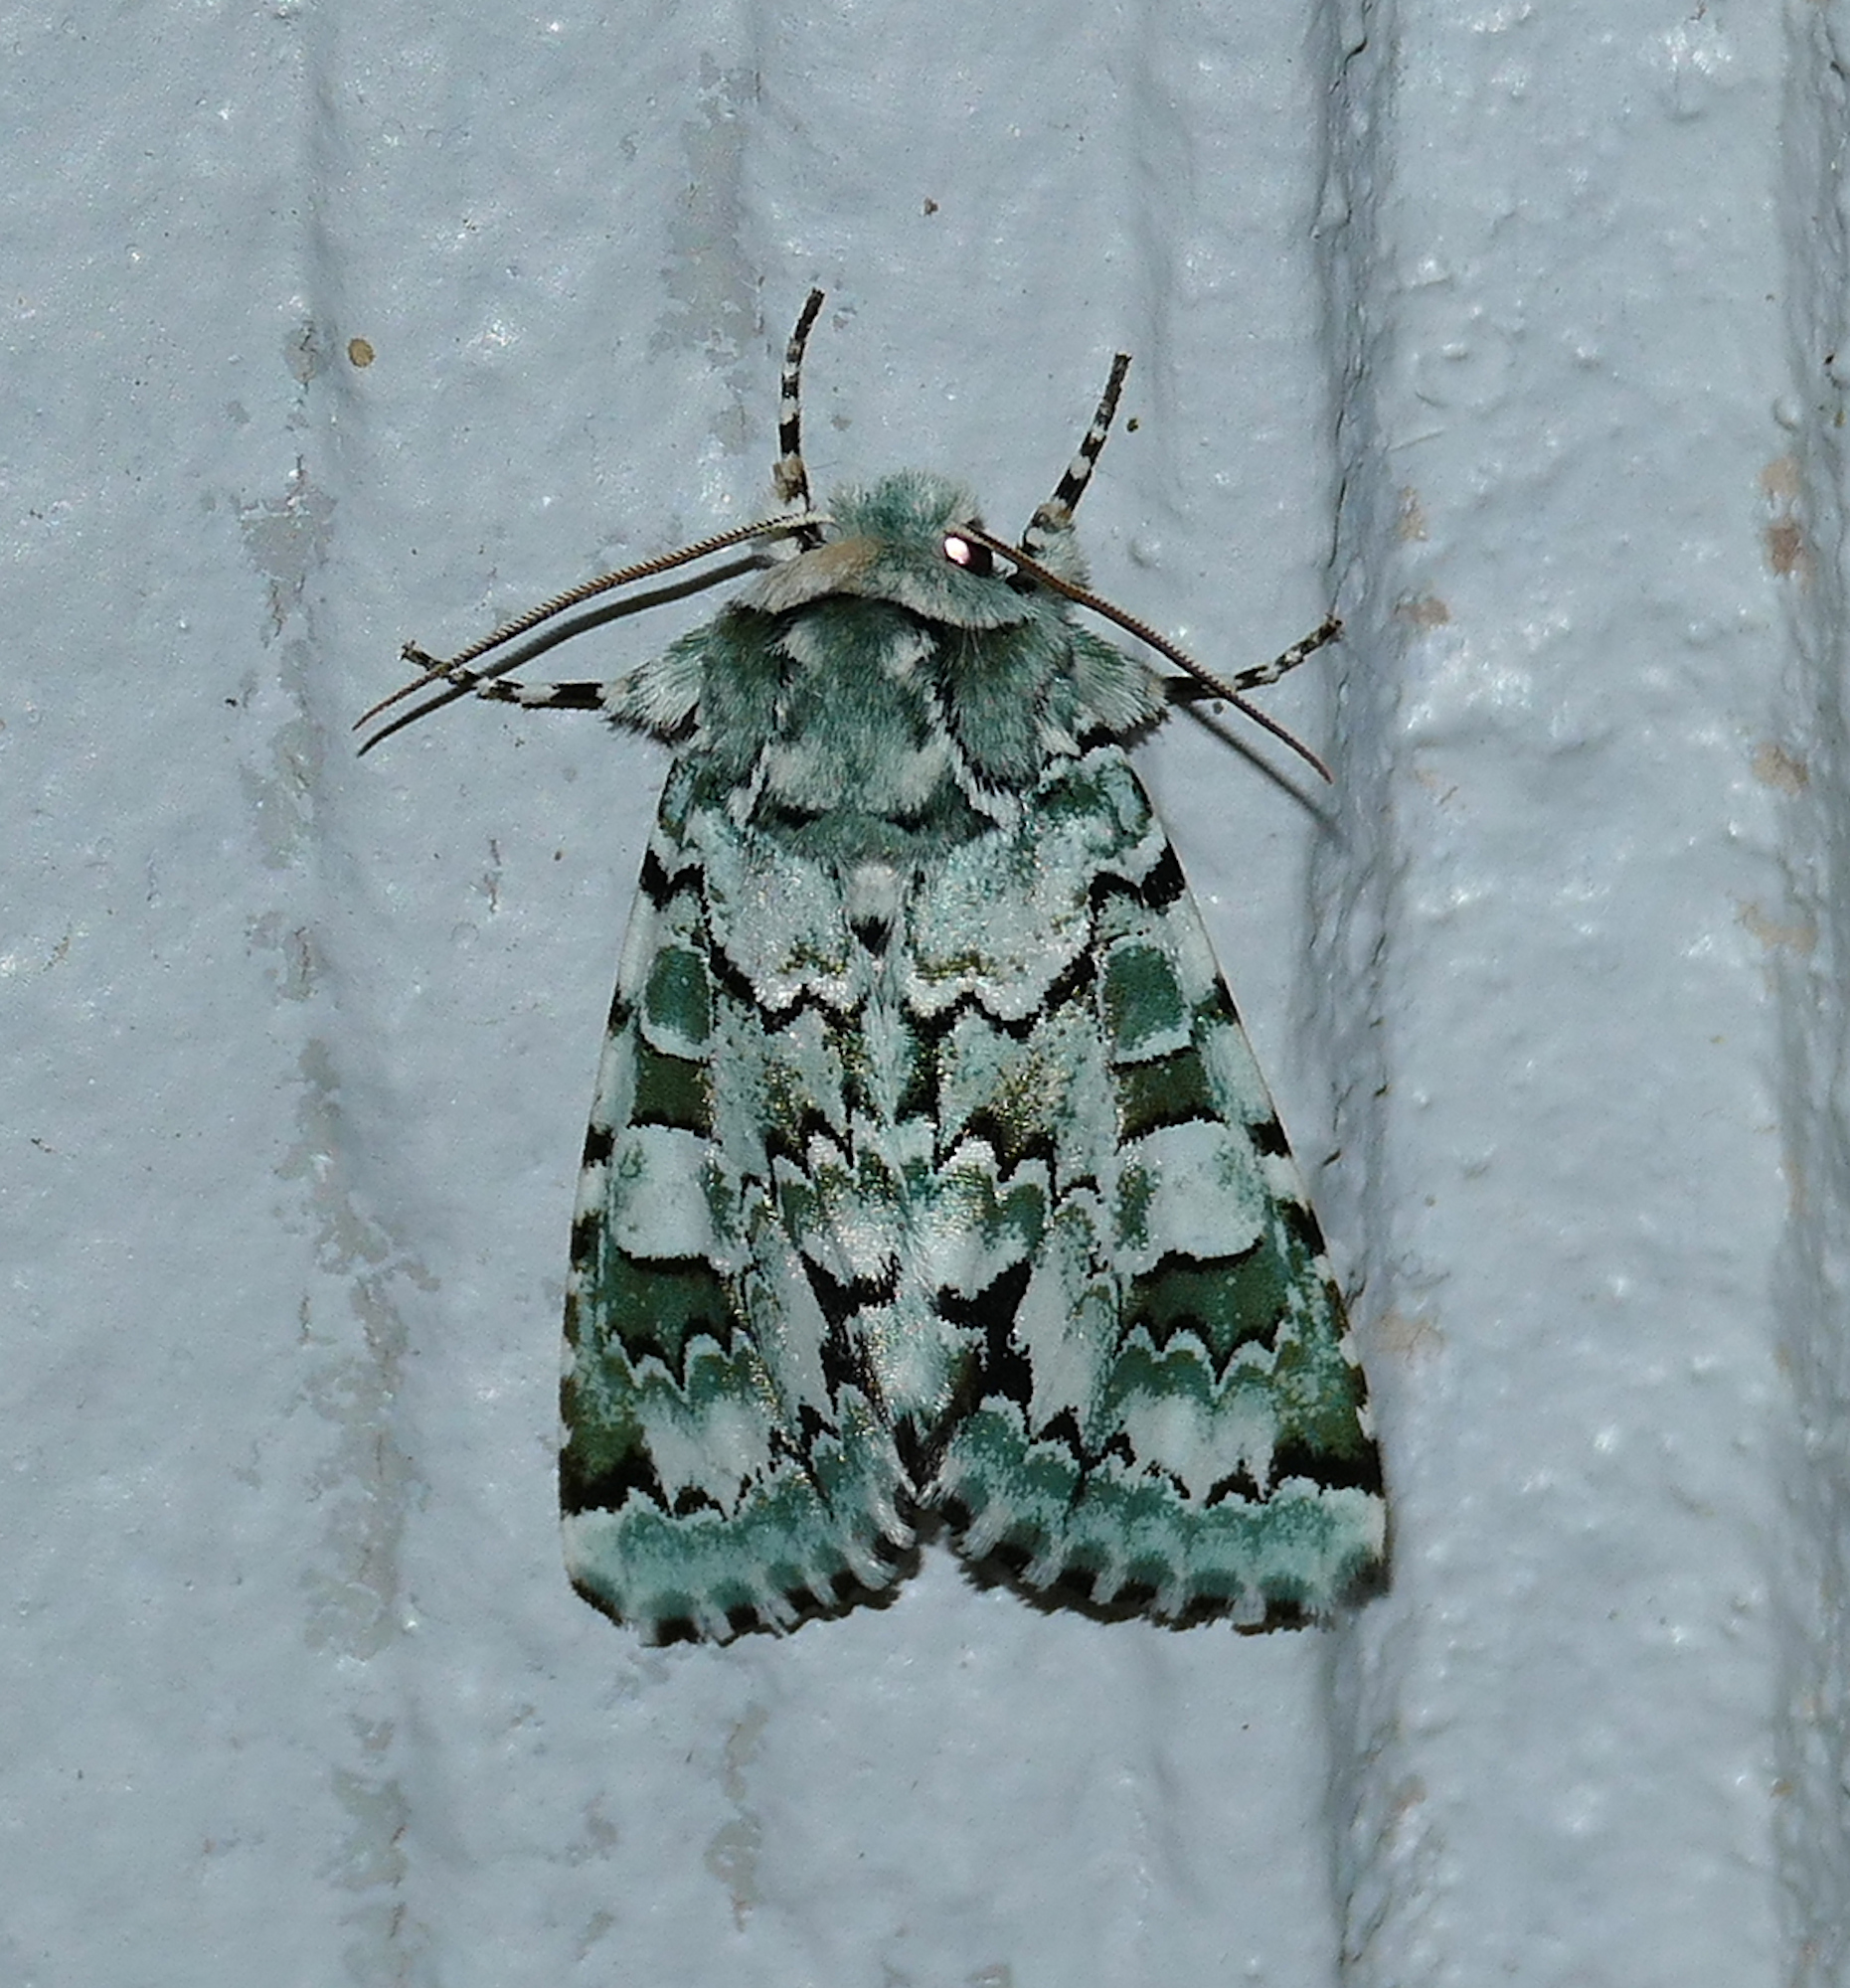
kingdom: Animalia
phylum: Arthropoda
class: Insecta
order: Lepidoptera
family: Noctuidae
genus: Miracavira
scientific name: Miracavira brillians
